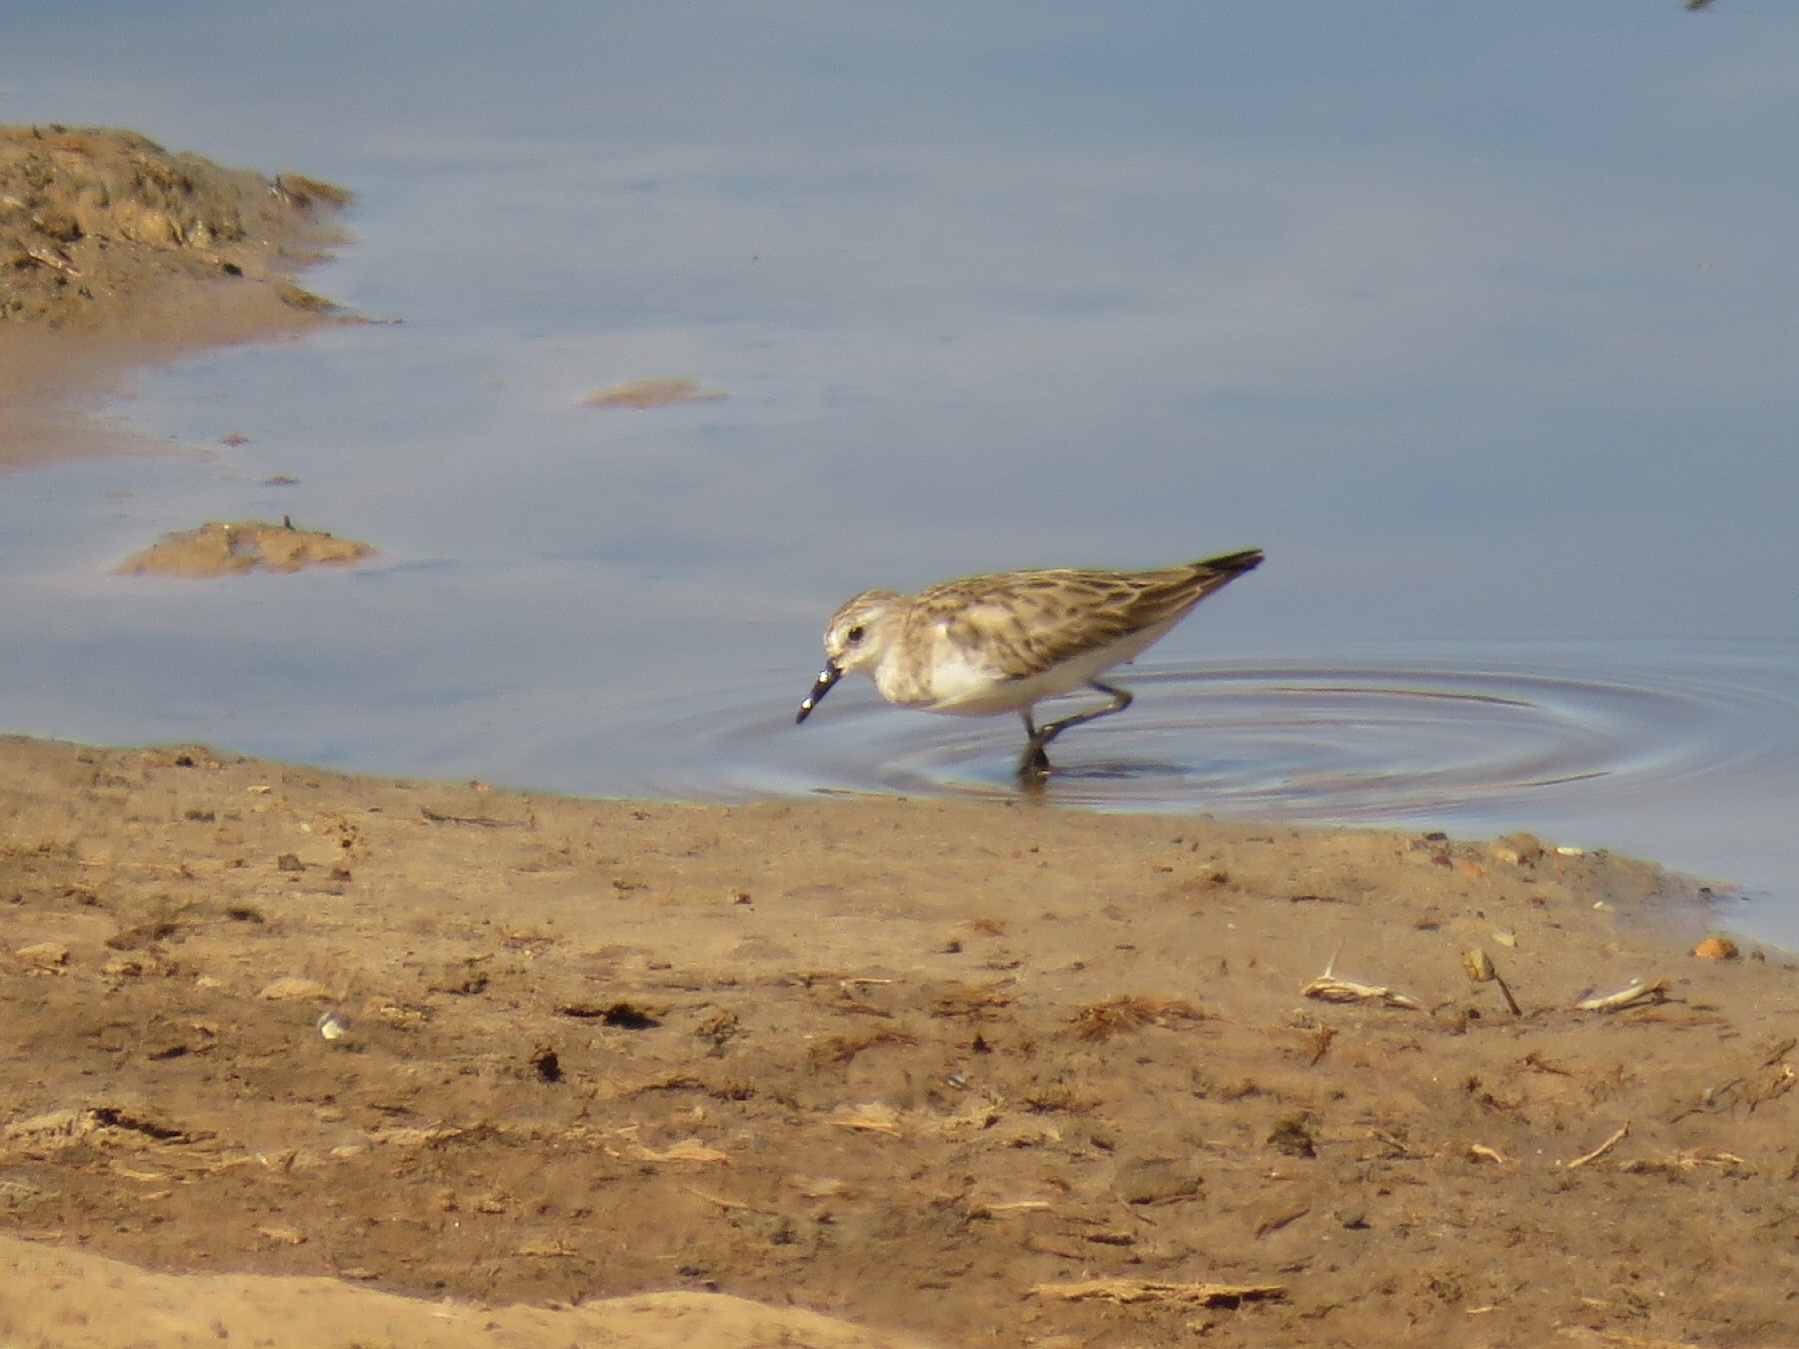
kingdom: Animalia
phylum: Chordata
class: Aves
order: Charadriiformes
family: Scolopacidae
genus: Calidris
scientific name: Calidris minuta
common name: Little stint
